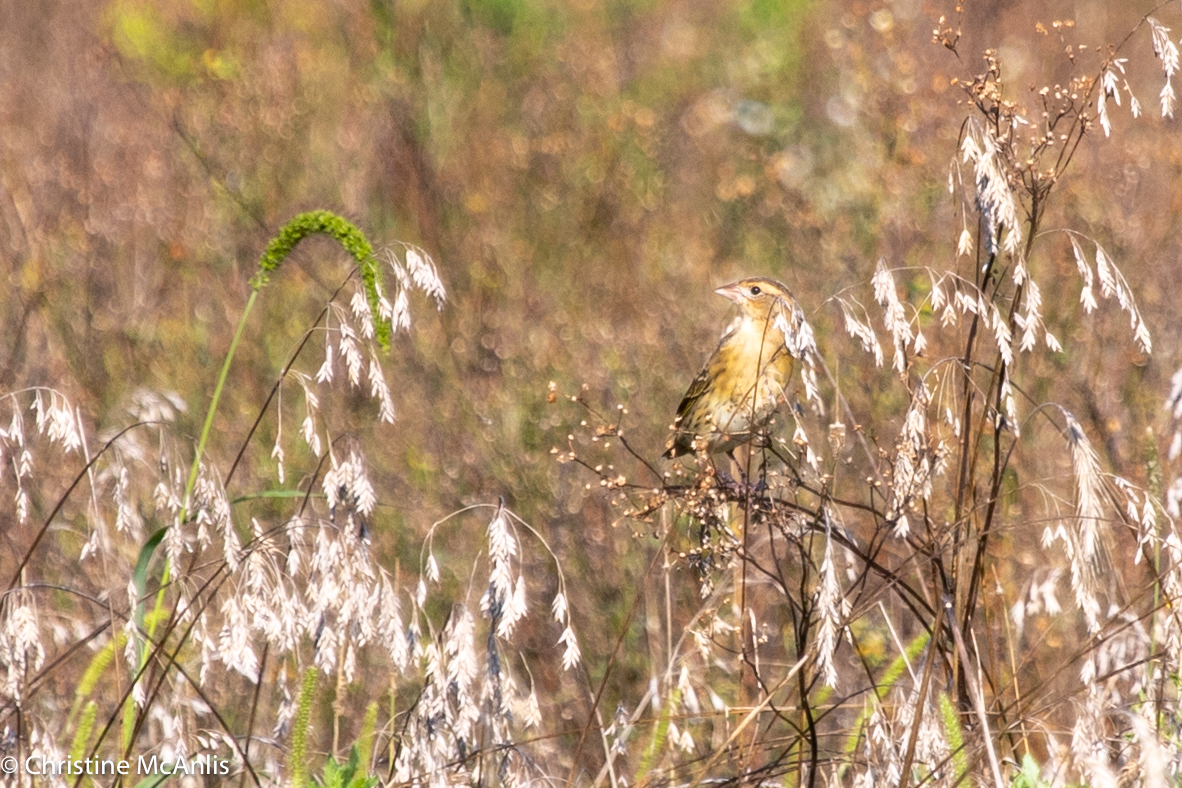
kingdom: Animalia
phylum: Chordata
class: Aves
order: Passeriformes
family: Icteridae
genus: Dolichonyx
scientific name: Dolichonyx oryzivorus
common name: Bobolink
